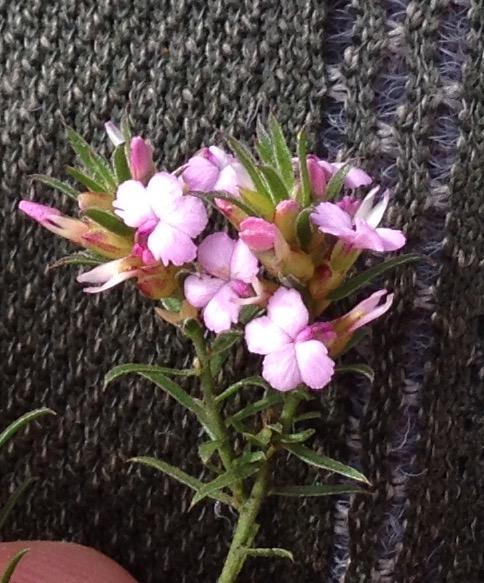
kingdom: Plantae
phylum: Tracheophyta
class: Magnoliopsida
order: Fabales
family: Polygalaceae
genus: Muraltia
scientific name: Muraltia knysnaensis
